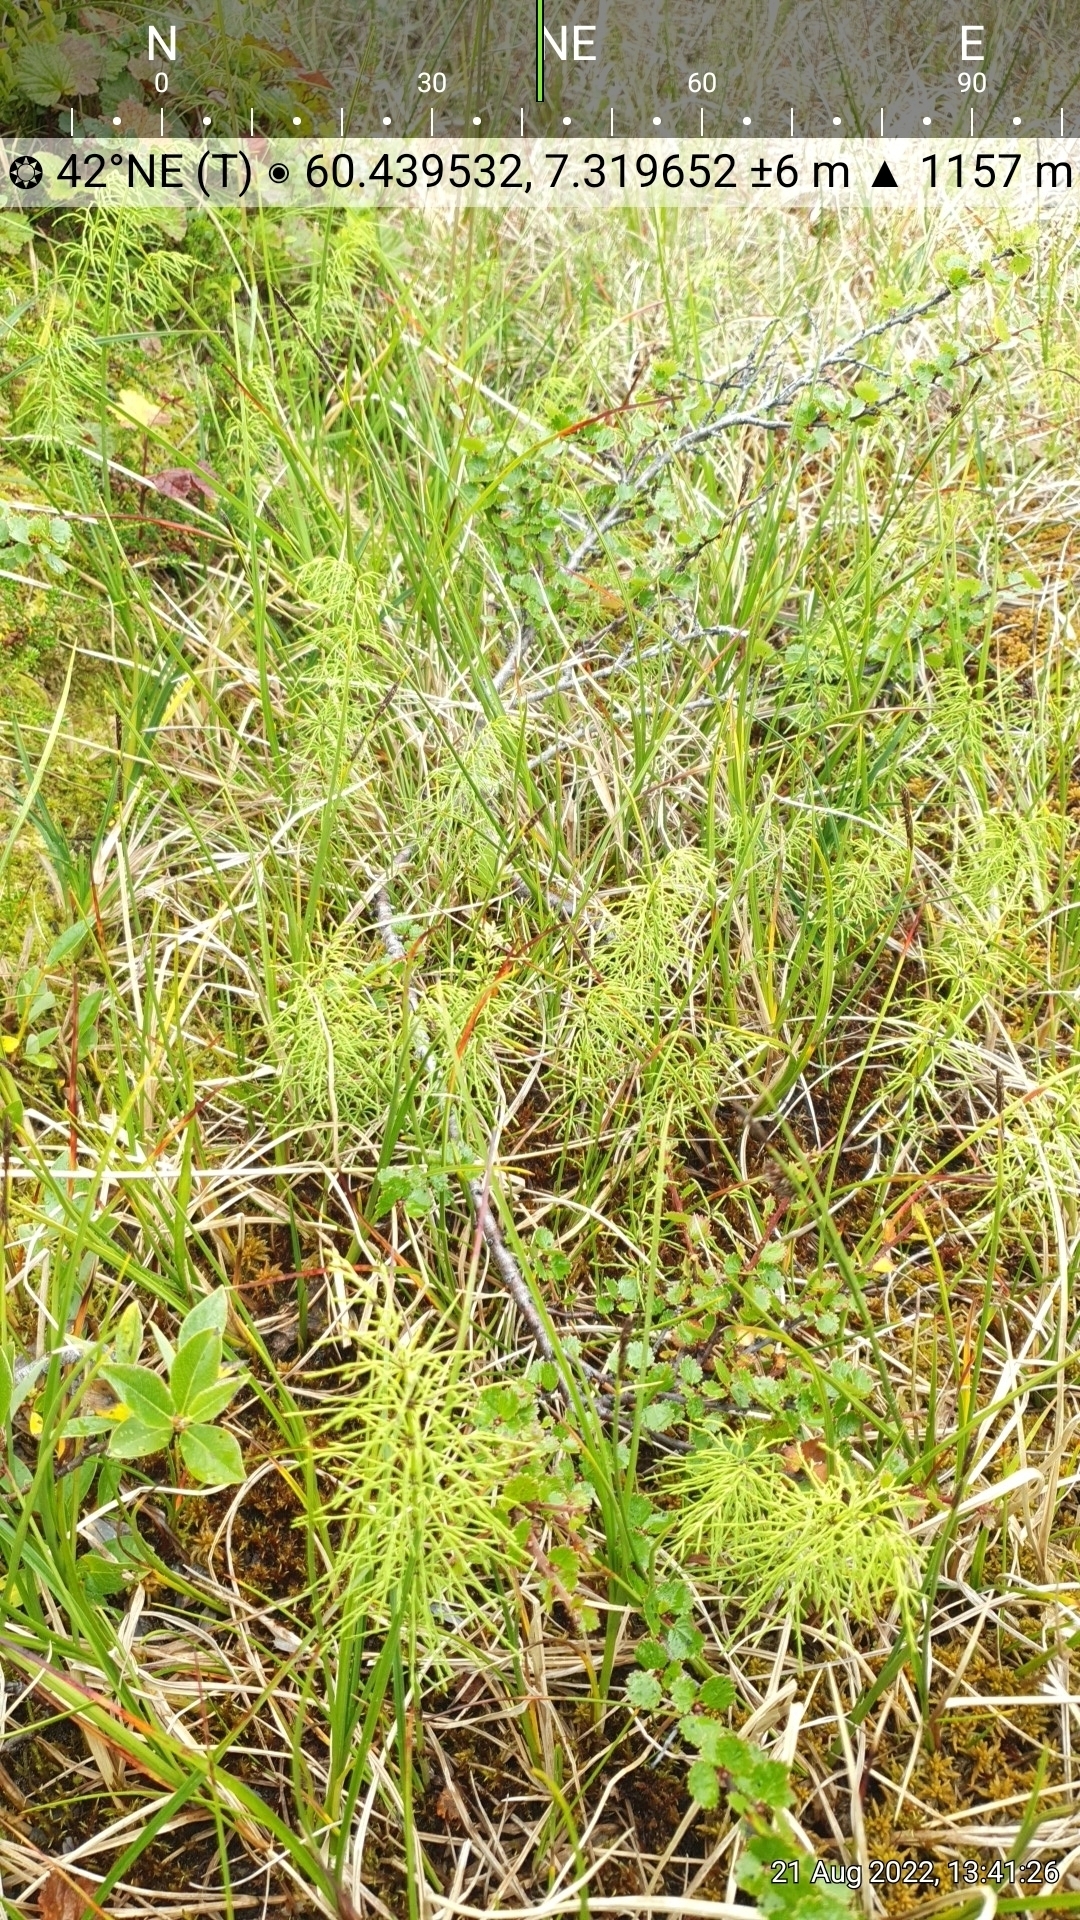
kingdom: Plantae
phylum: Tracheophyta
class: Polypodiopsida
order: Equisetales
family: Equisetaceae
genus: Equisetum
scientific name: Equisetum sylvaticum
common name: Wood horsetail
